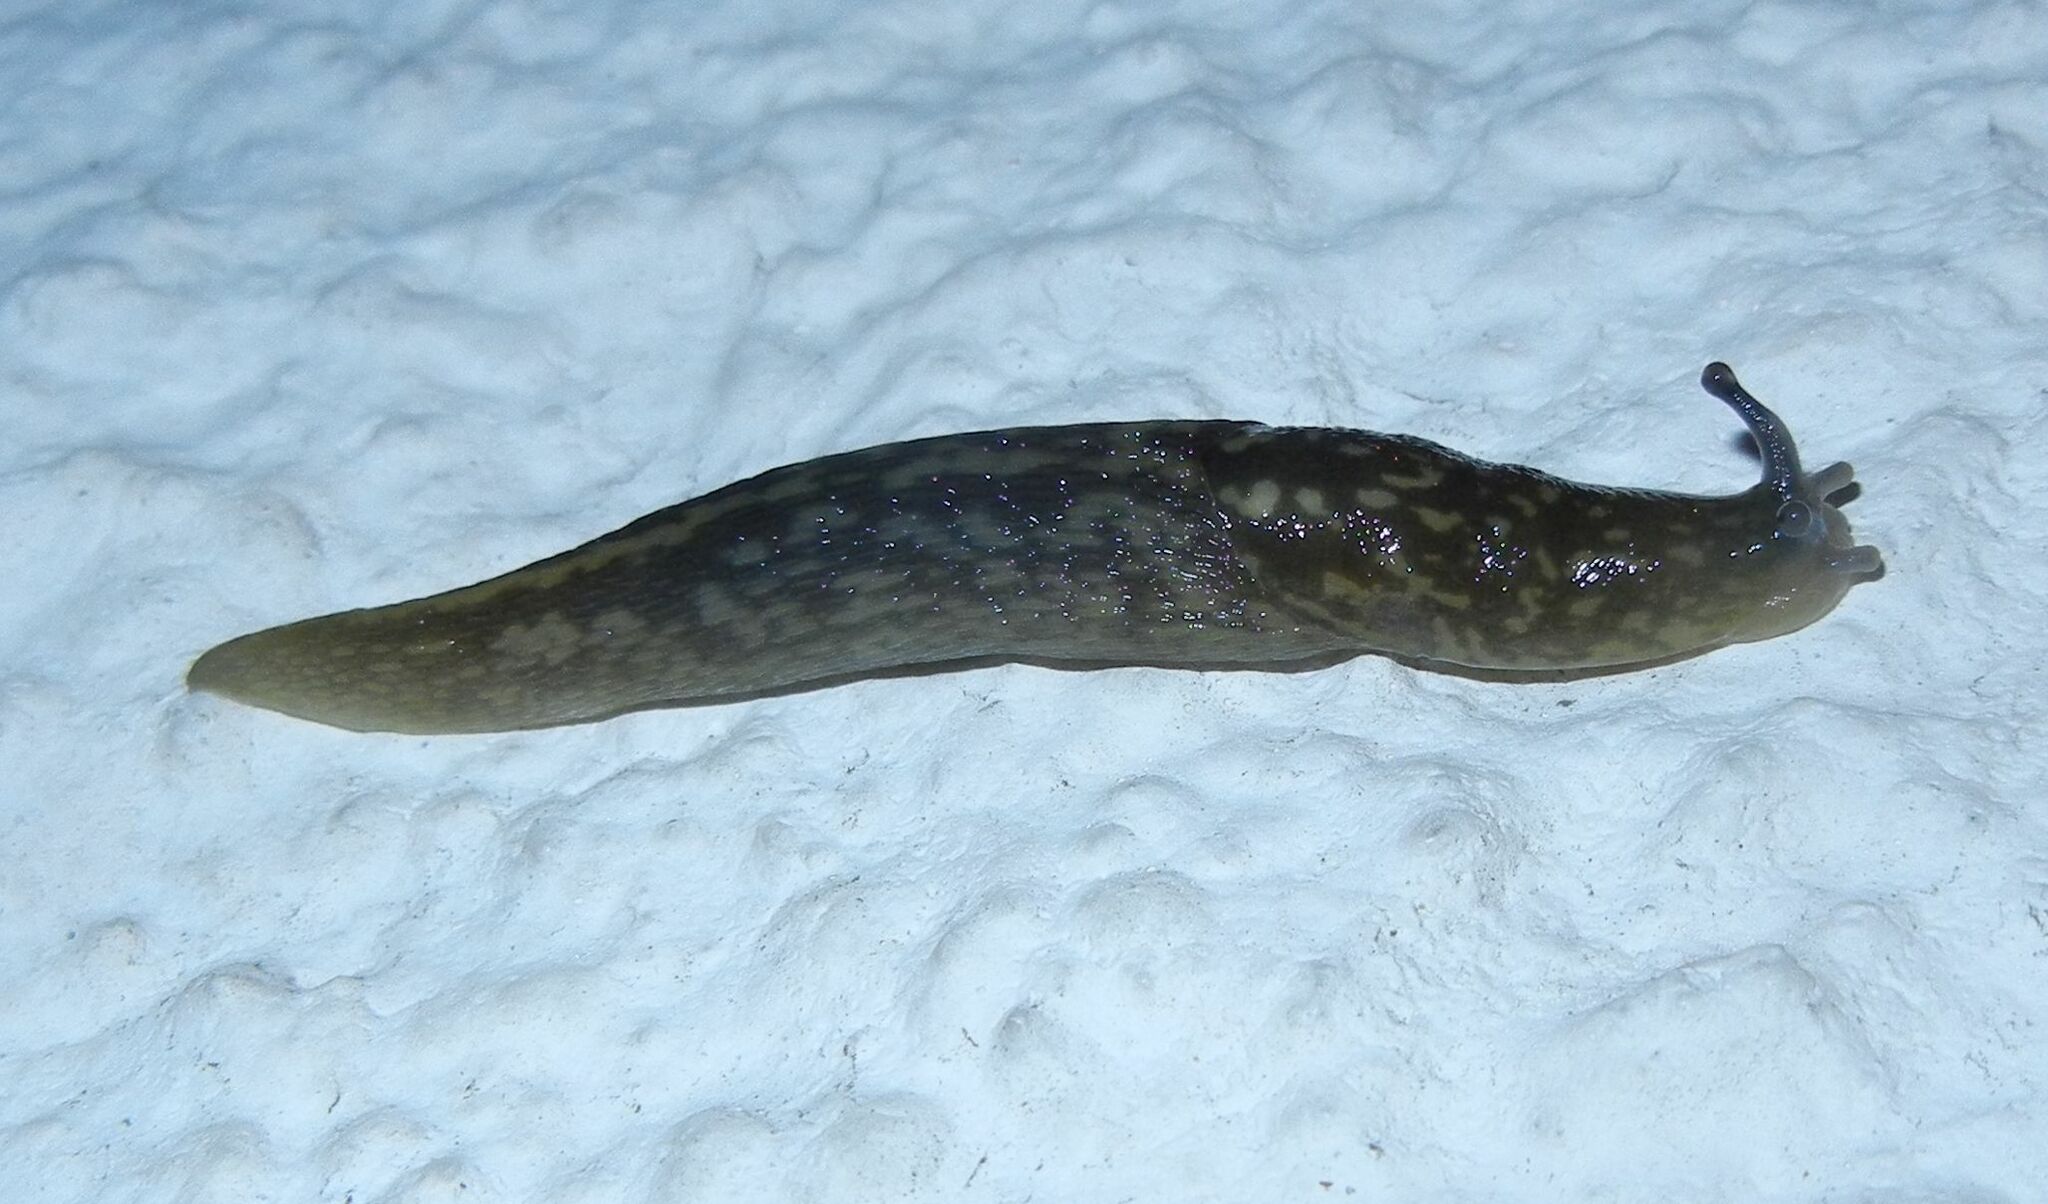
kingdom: Animalia
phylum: Mollusca
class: Gastropoda
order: Stylommatophora
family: Limacidae
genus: Limacus
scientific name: Limacus flavus
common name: Yellow gardenslug
